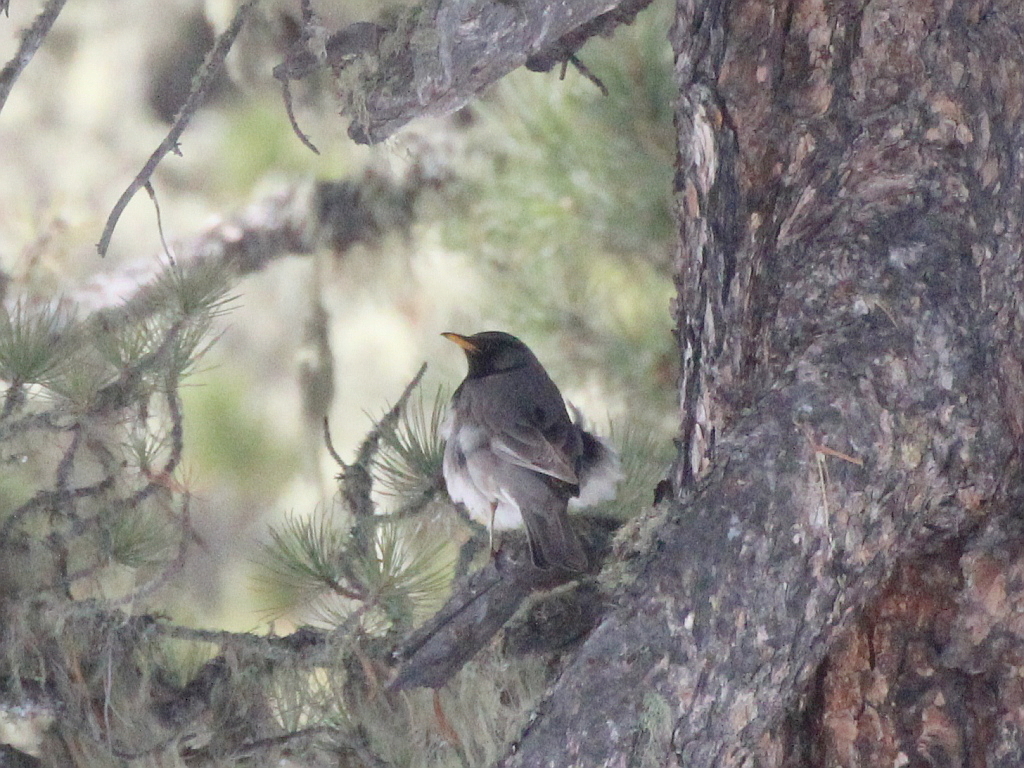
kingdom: Animalia
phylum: Chordata
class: Aves
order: Passeriformes
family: Turdidae
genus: Turdus
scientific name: Turdus atrogularis
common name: Black-throated thrush
